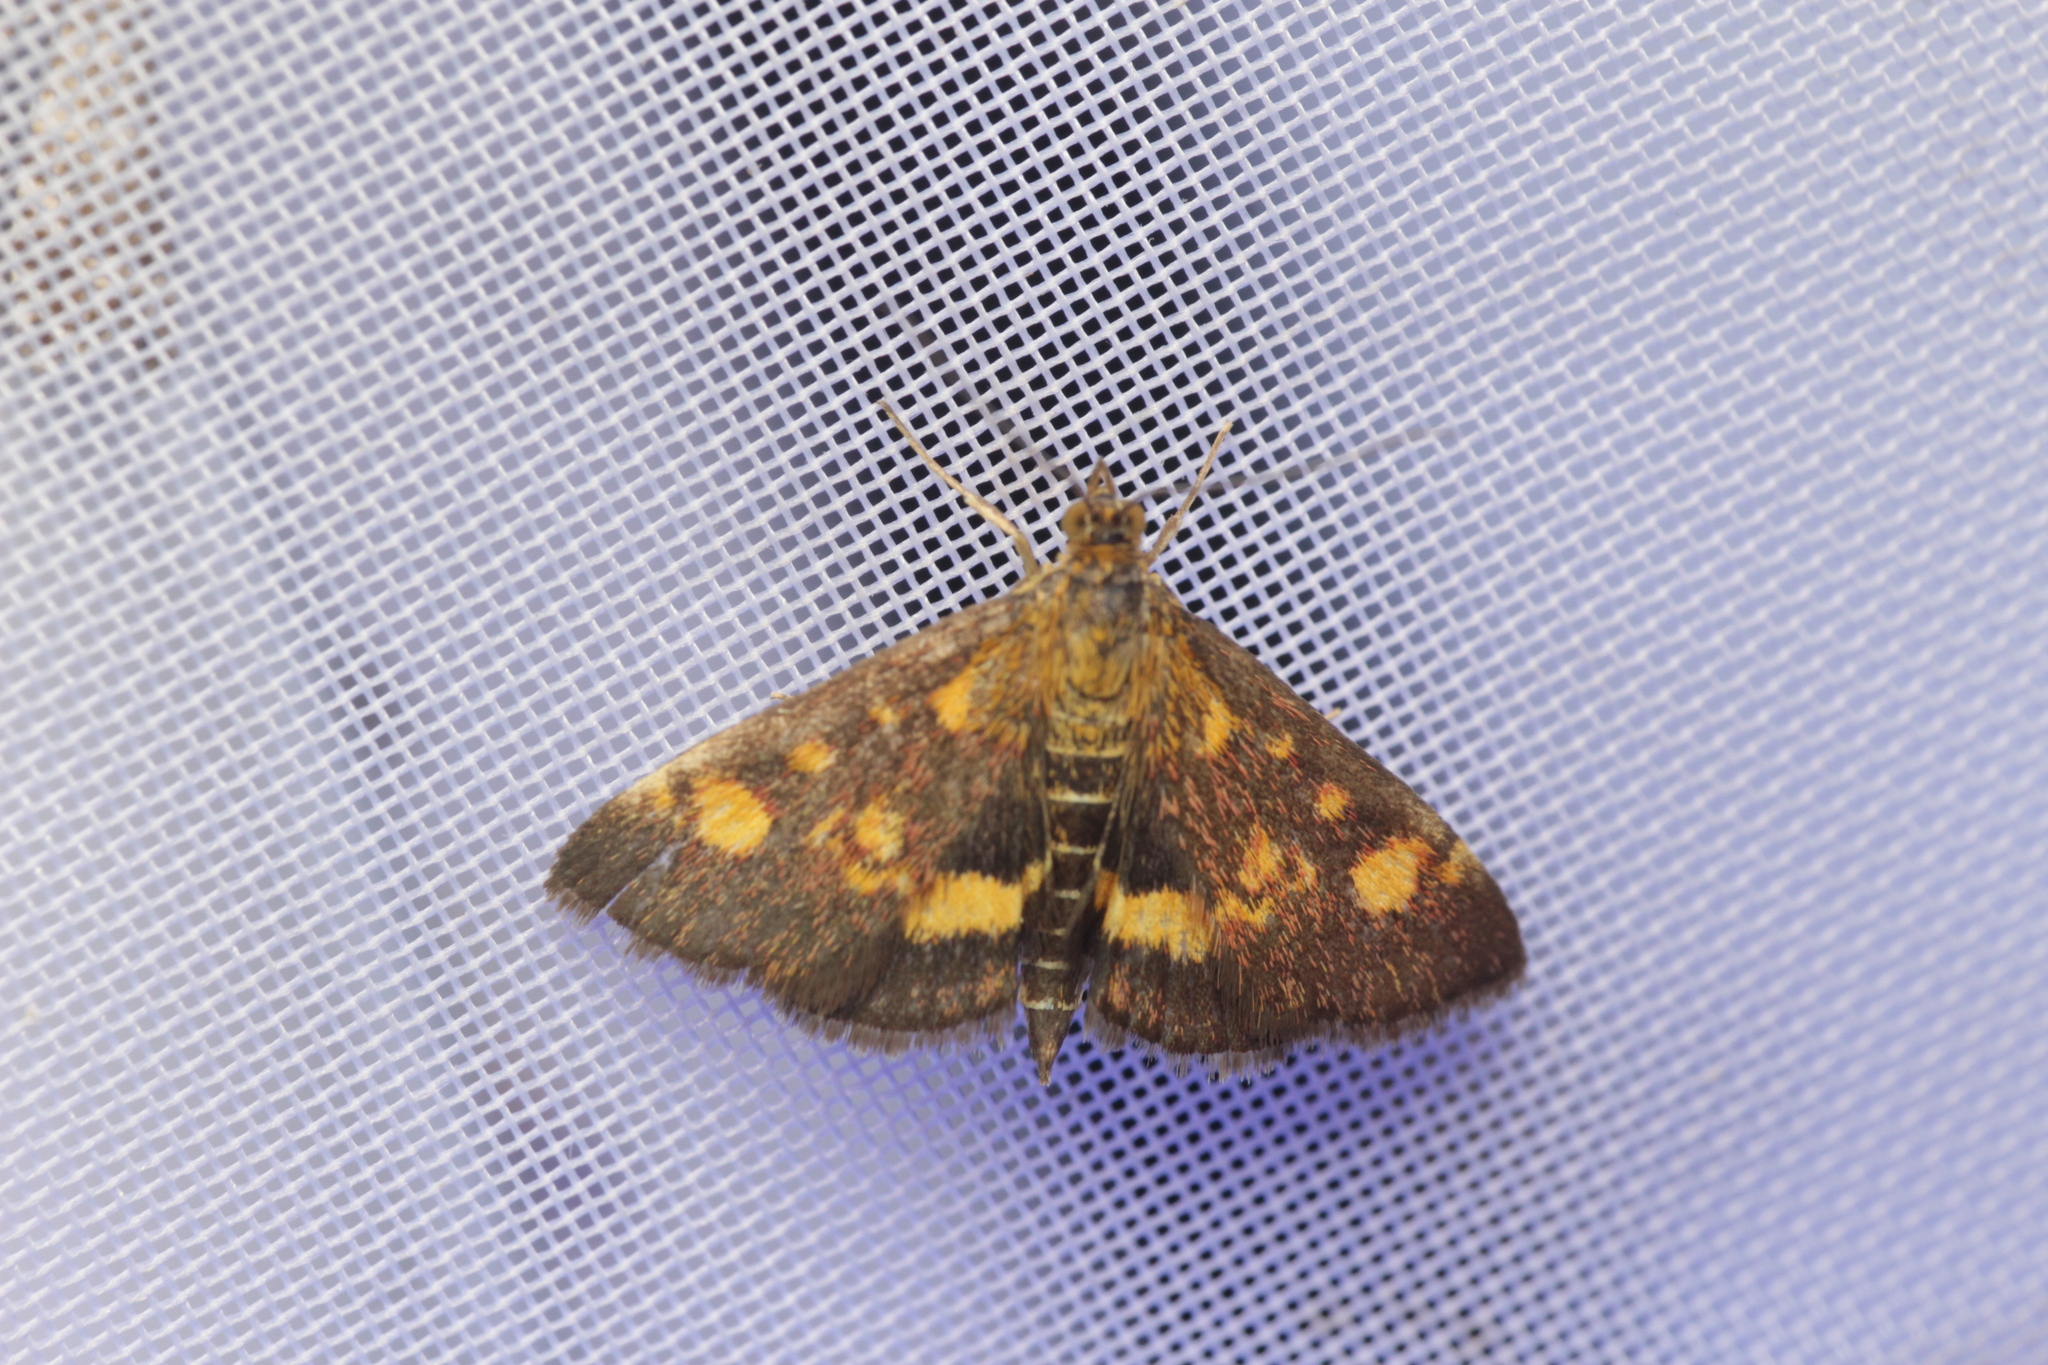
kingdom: Animalia
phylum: Arthropoda
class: Insecta
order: Lepidoptera
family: Crambidae
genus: Pyrausta
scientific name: Pyrausta aurata
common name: Small purple & gold
